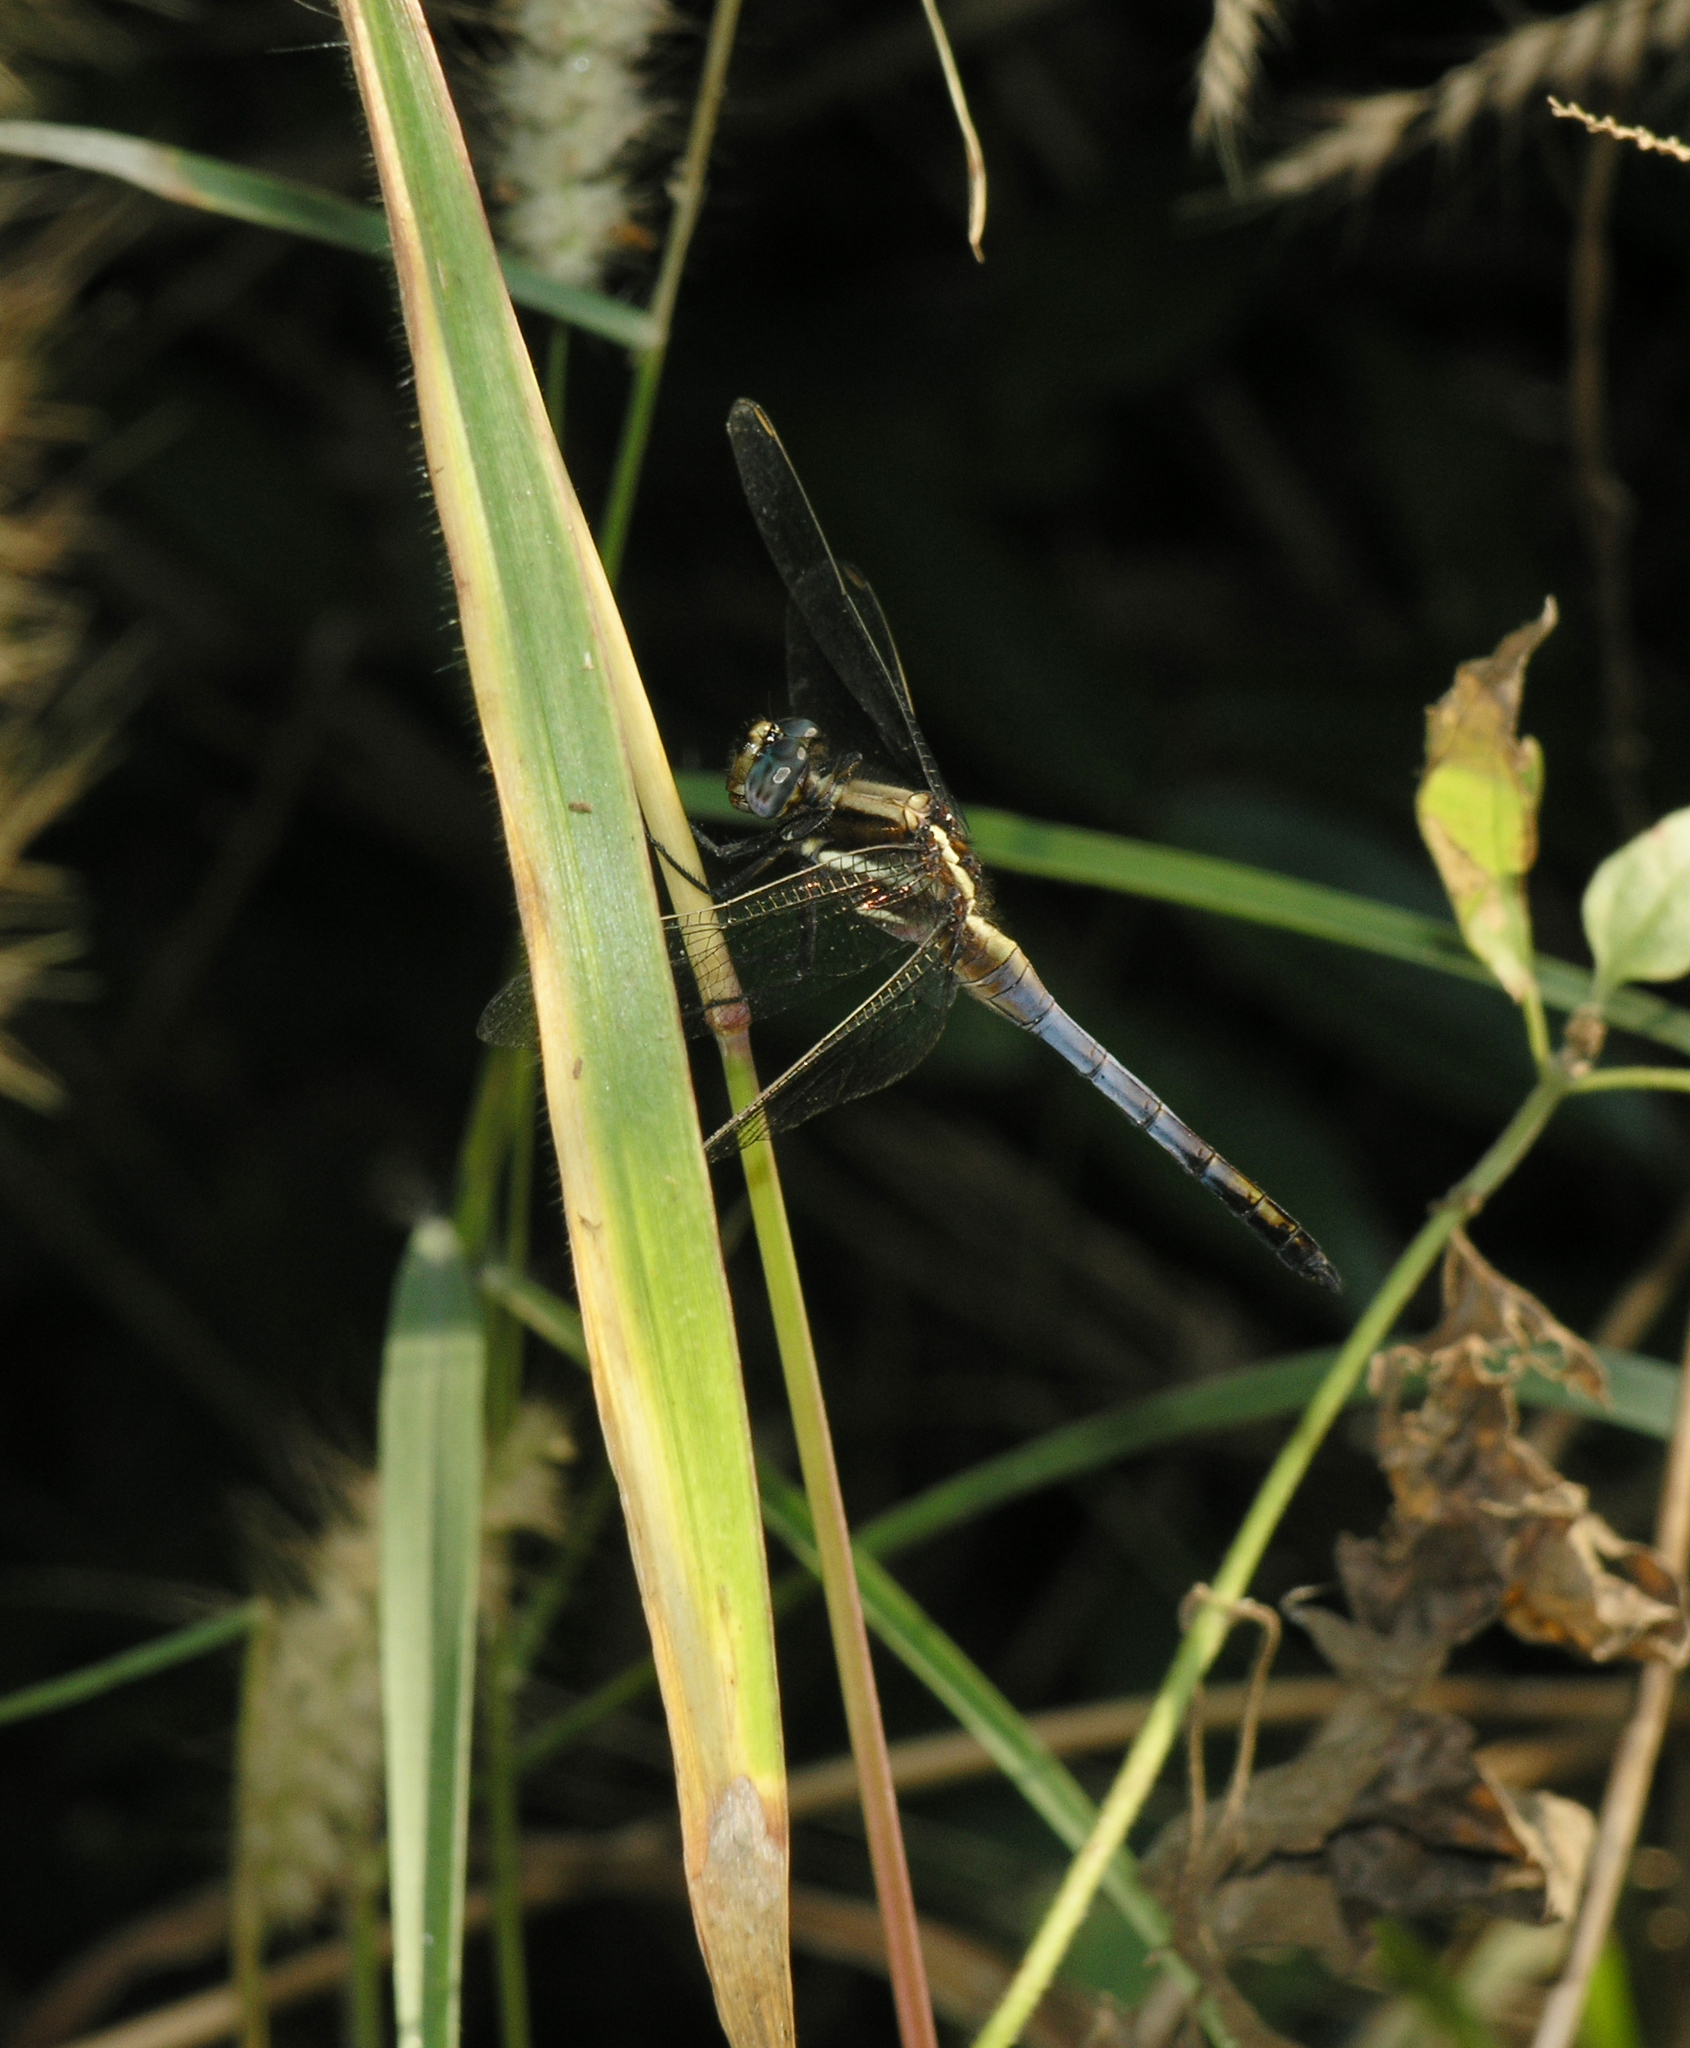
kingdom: Animalia
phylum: Arthropoda
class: Insecta
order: Odonata
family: Libellulidae
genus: Orthetrum
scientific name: Orthetrum glaucum
